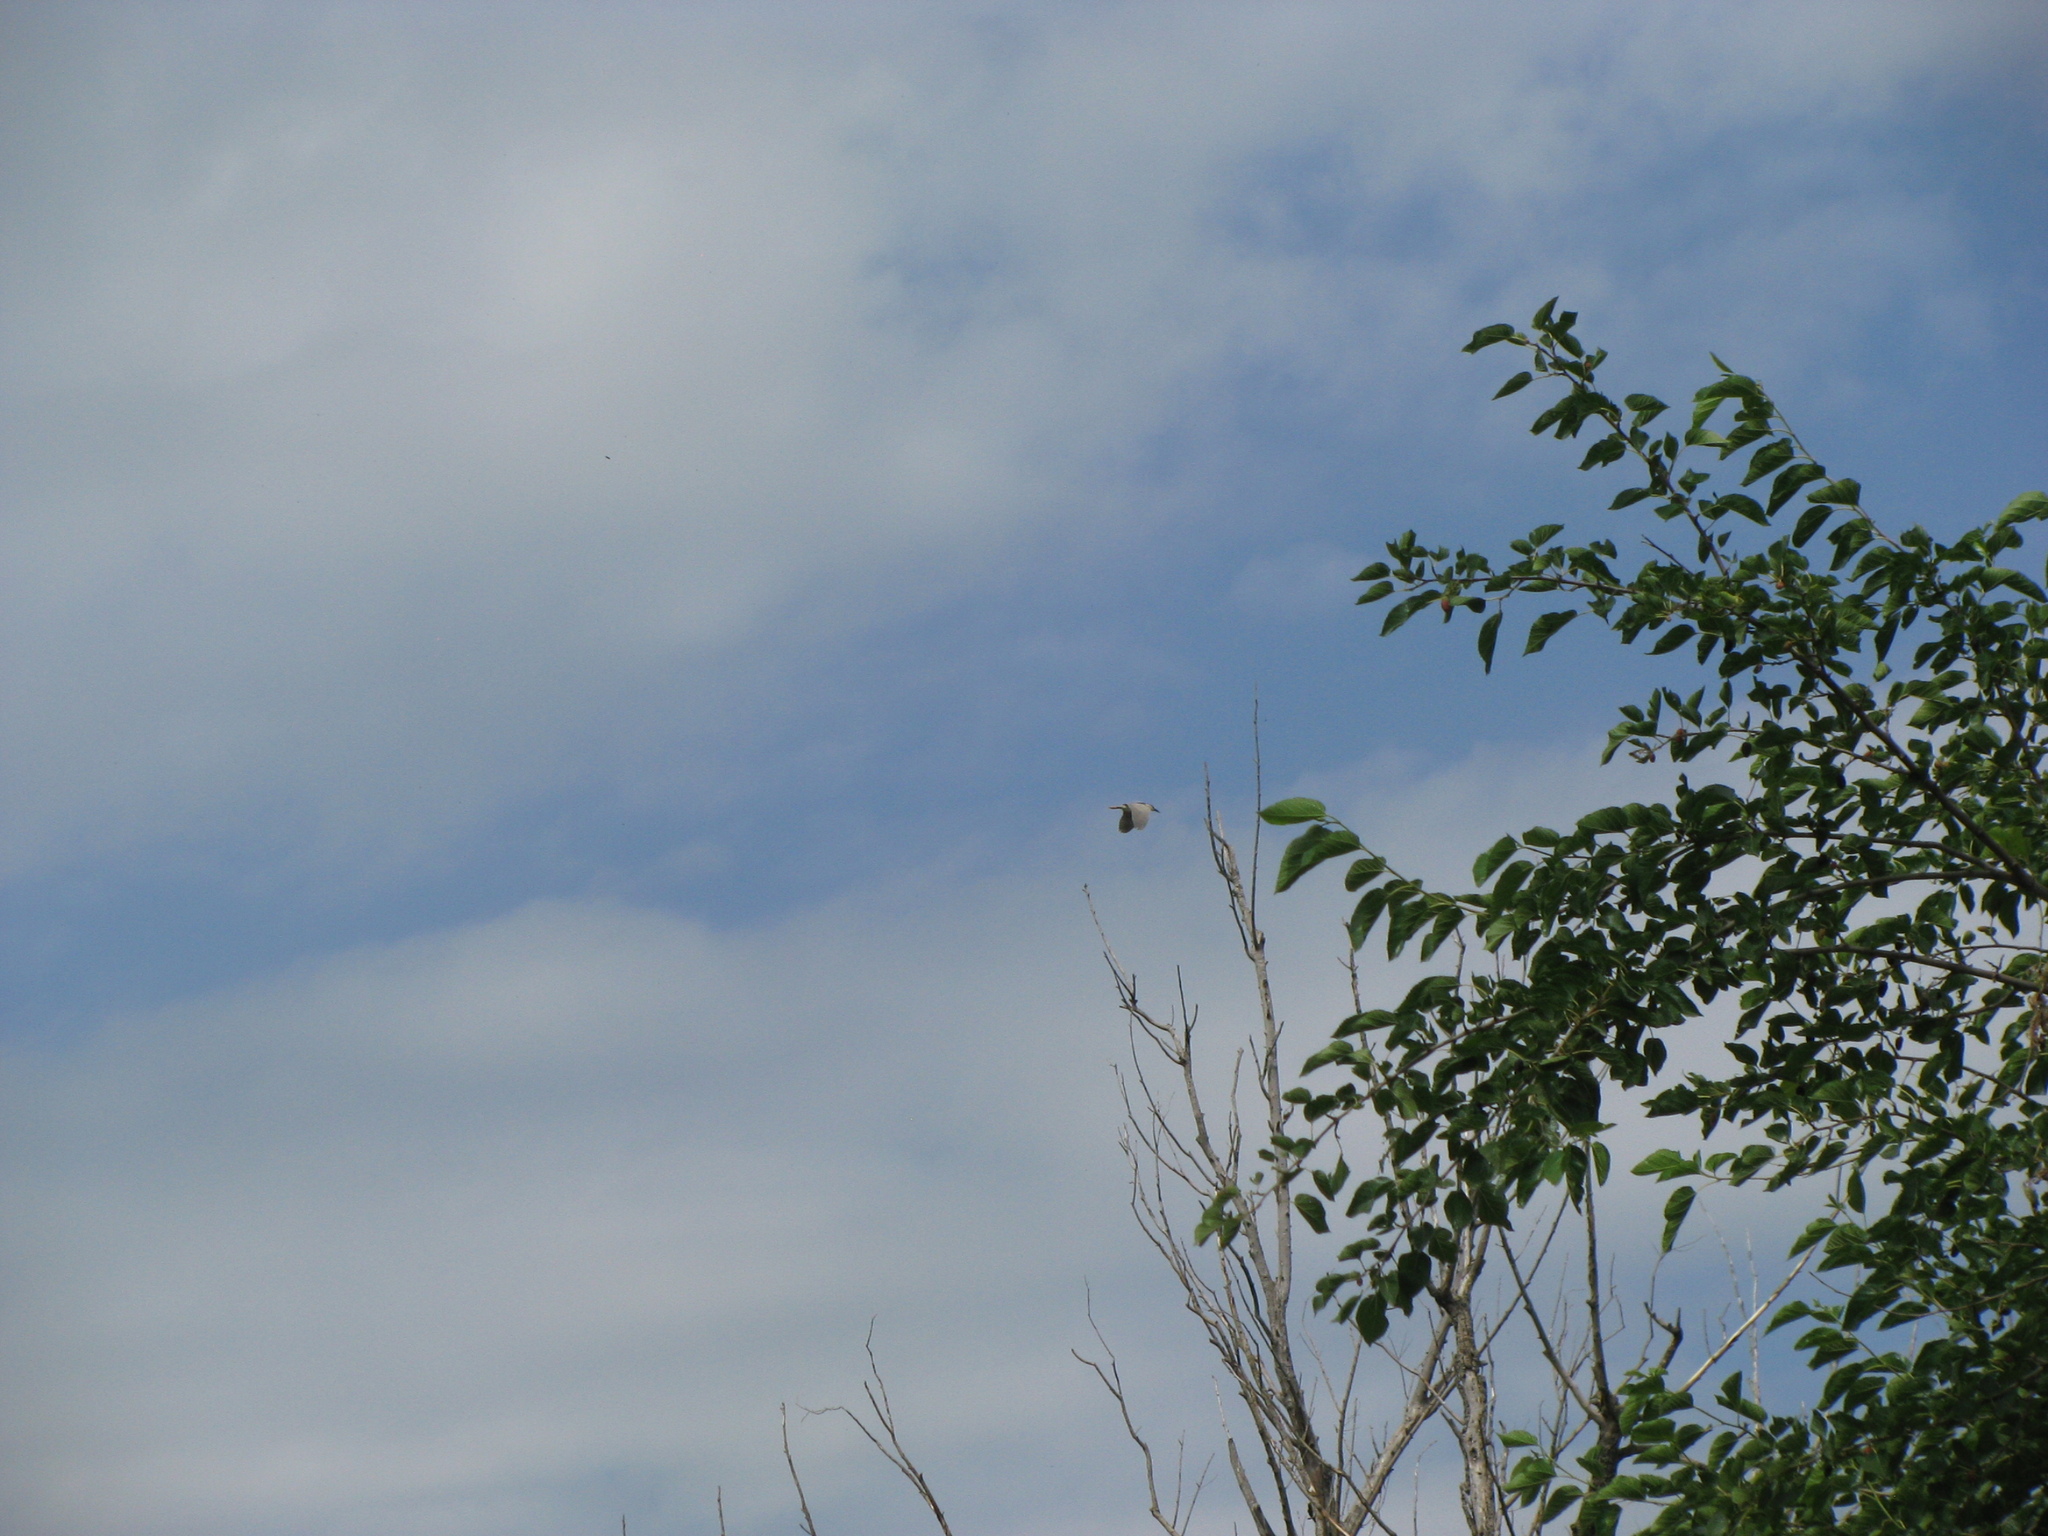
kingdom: Animalia
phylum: Chordata
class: Aves
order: Pelecaniformes
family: Ardeidae
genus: Nycticorax
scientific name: Nycticorax nycticorax
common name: Black-crowned night heron
